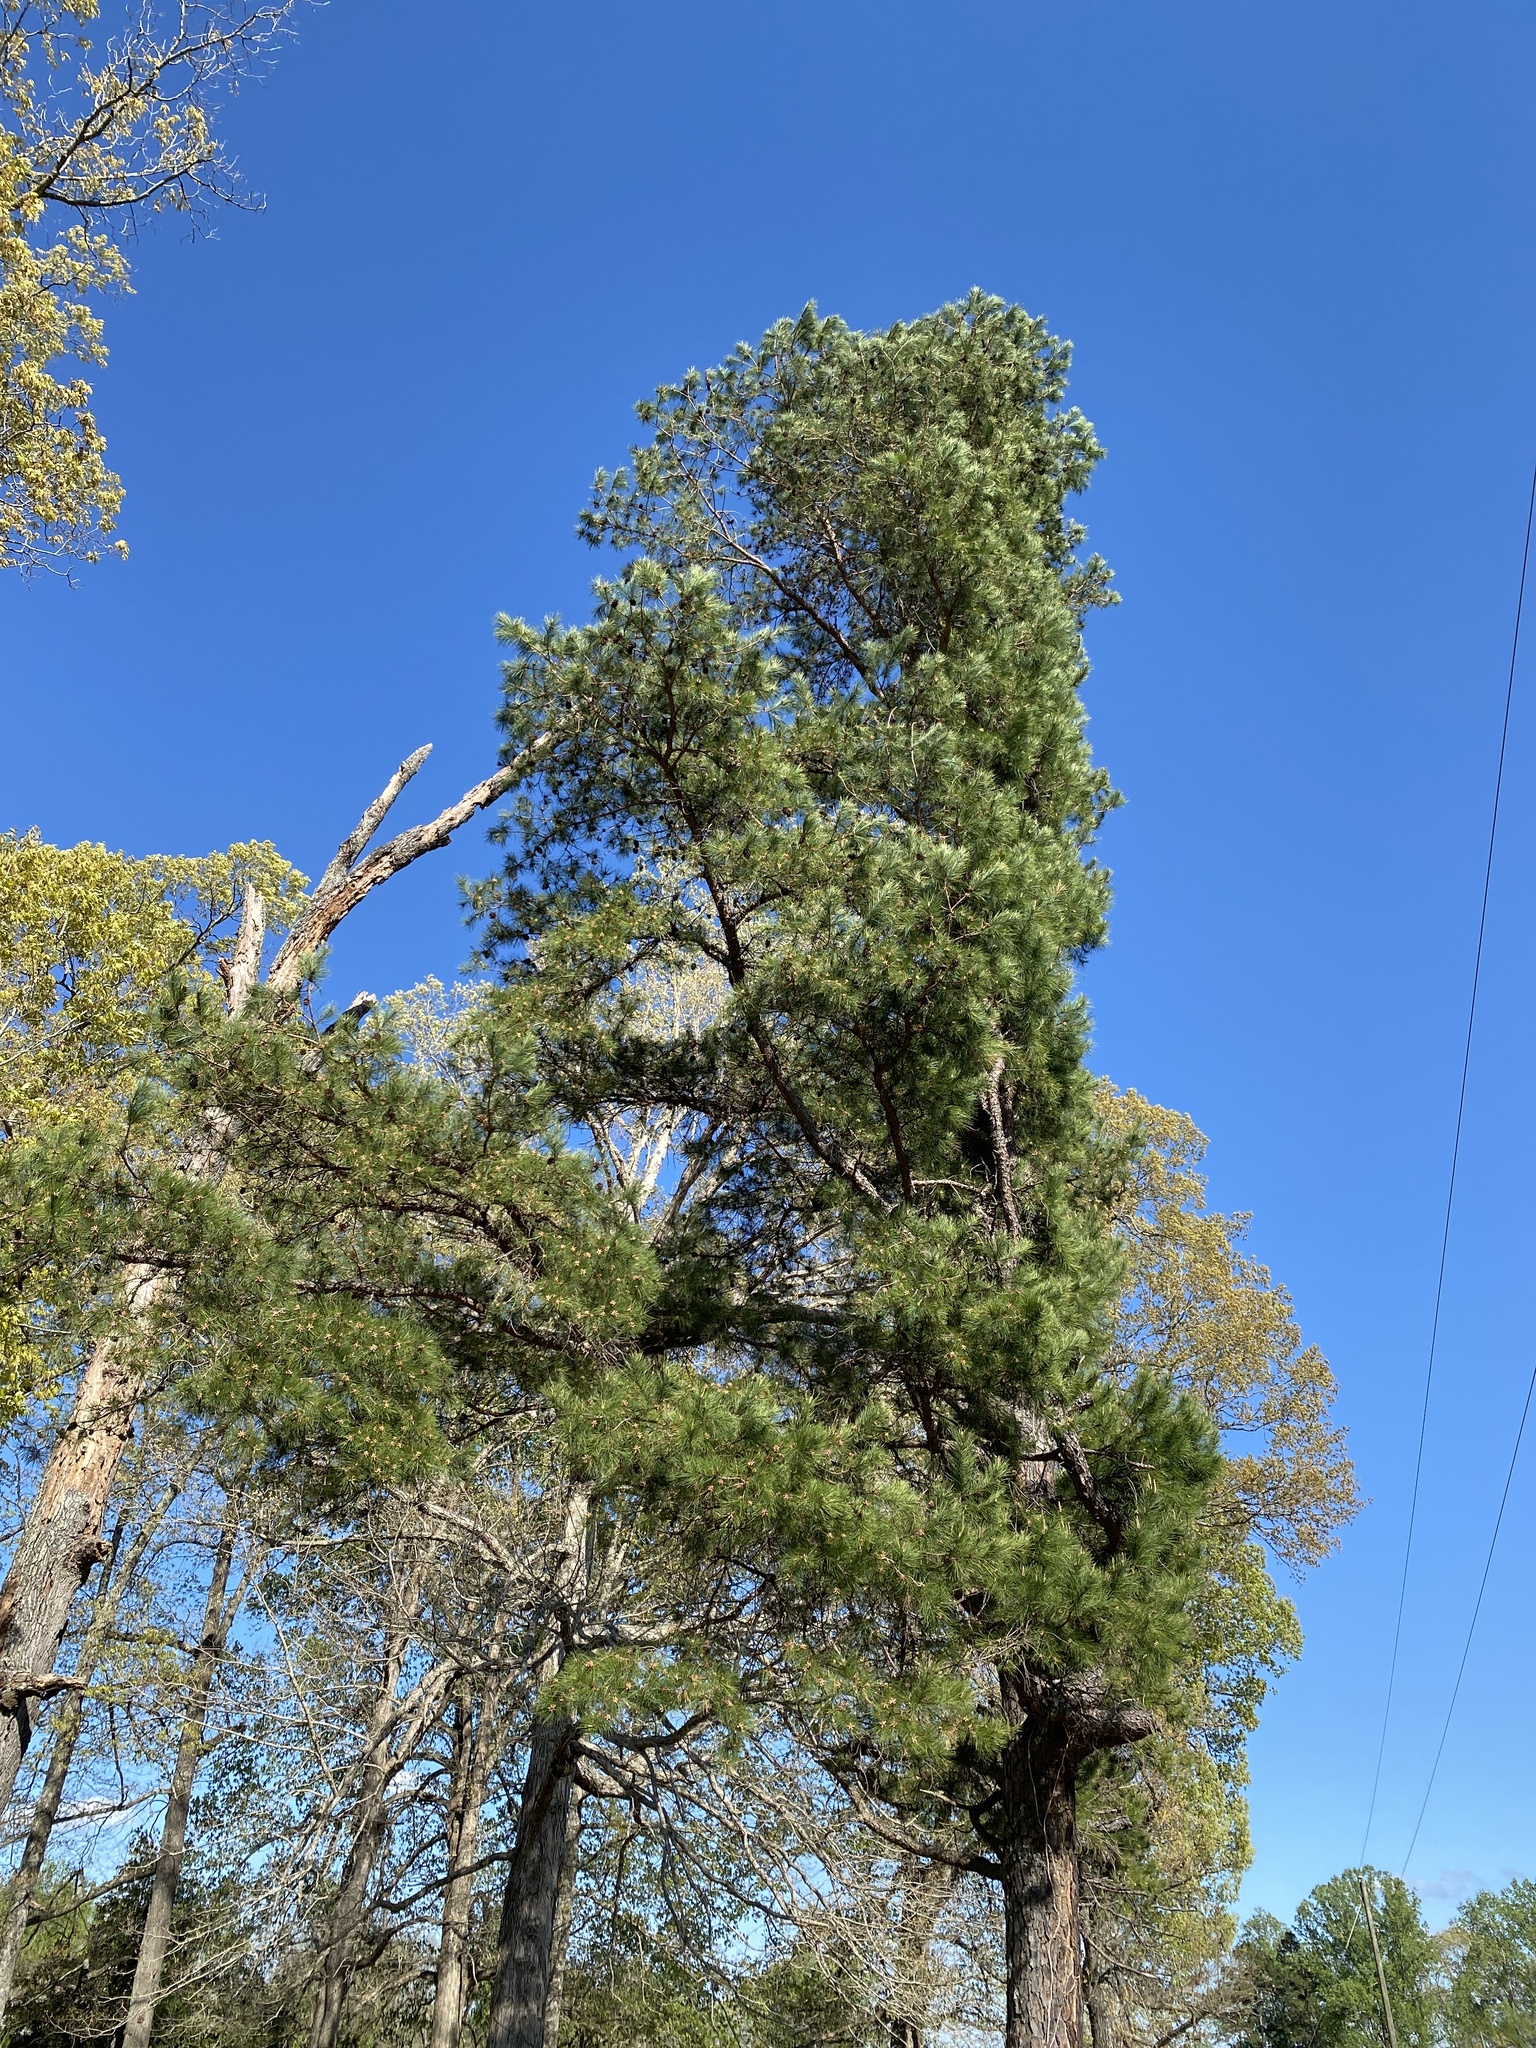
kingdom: Plantae
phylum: Tracheophyta
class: Pinopsida
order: Pinales
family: Pinaceae
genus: Pinus
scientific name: Pinus echinata
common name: Shortleaf pine
